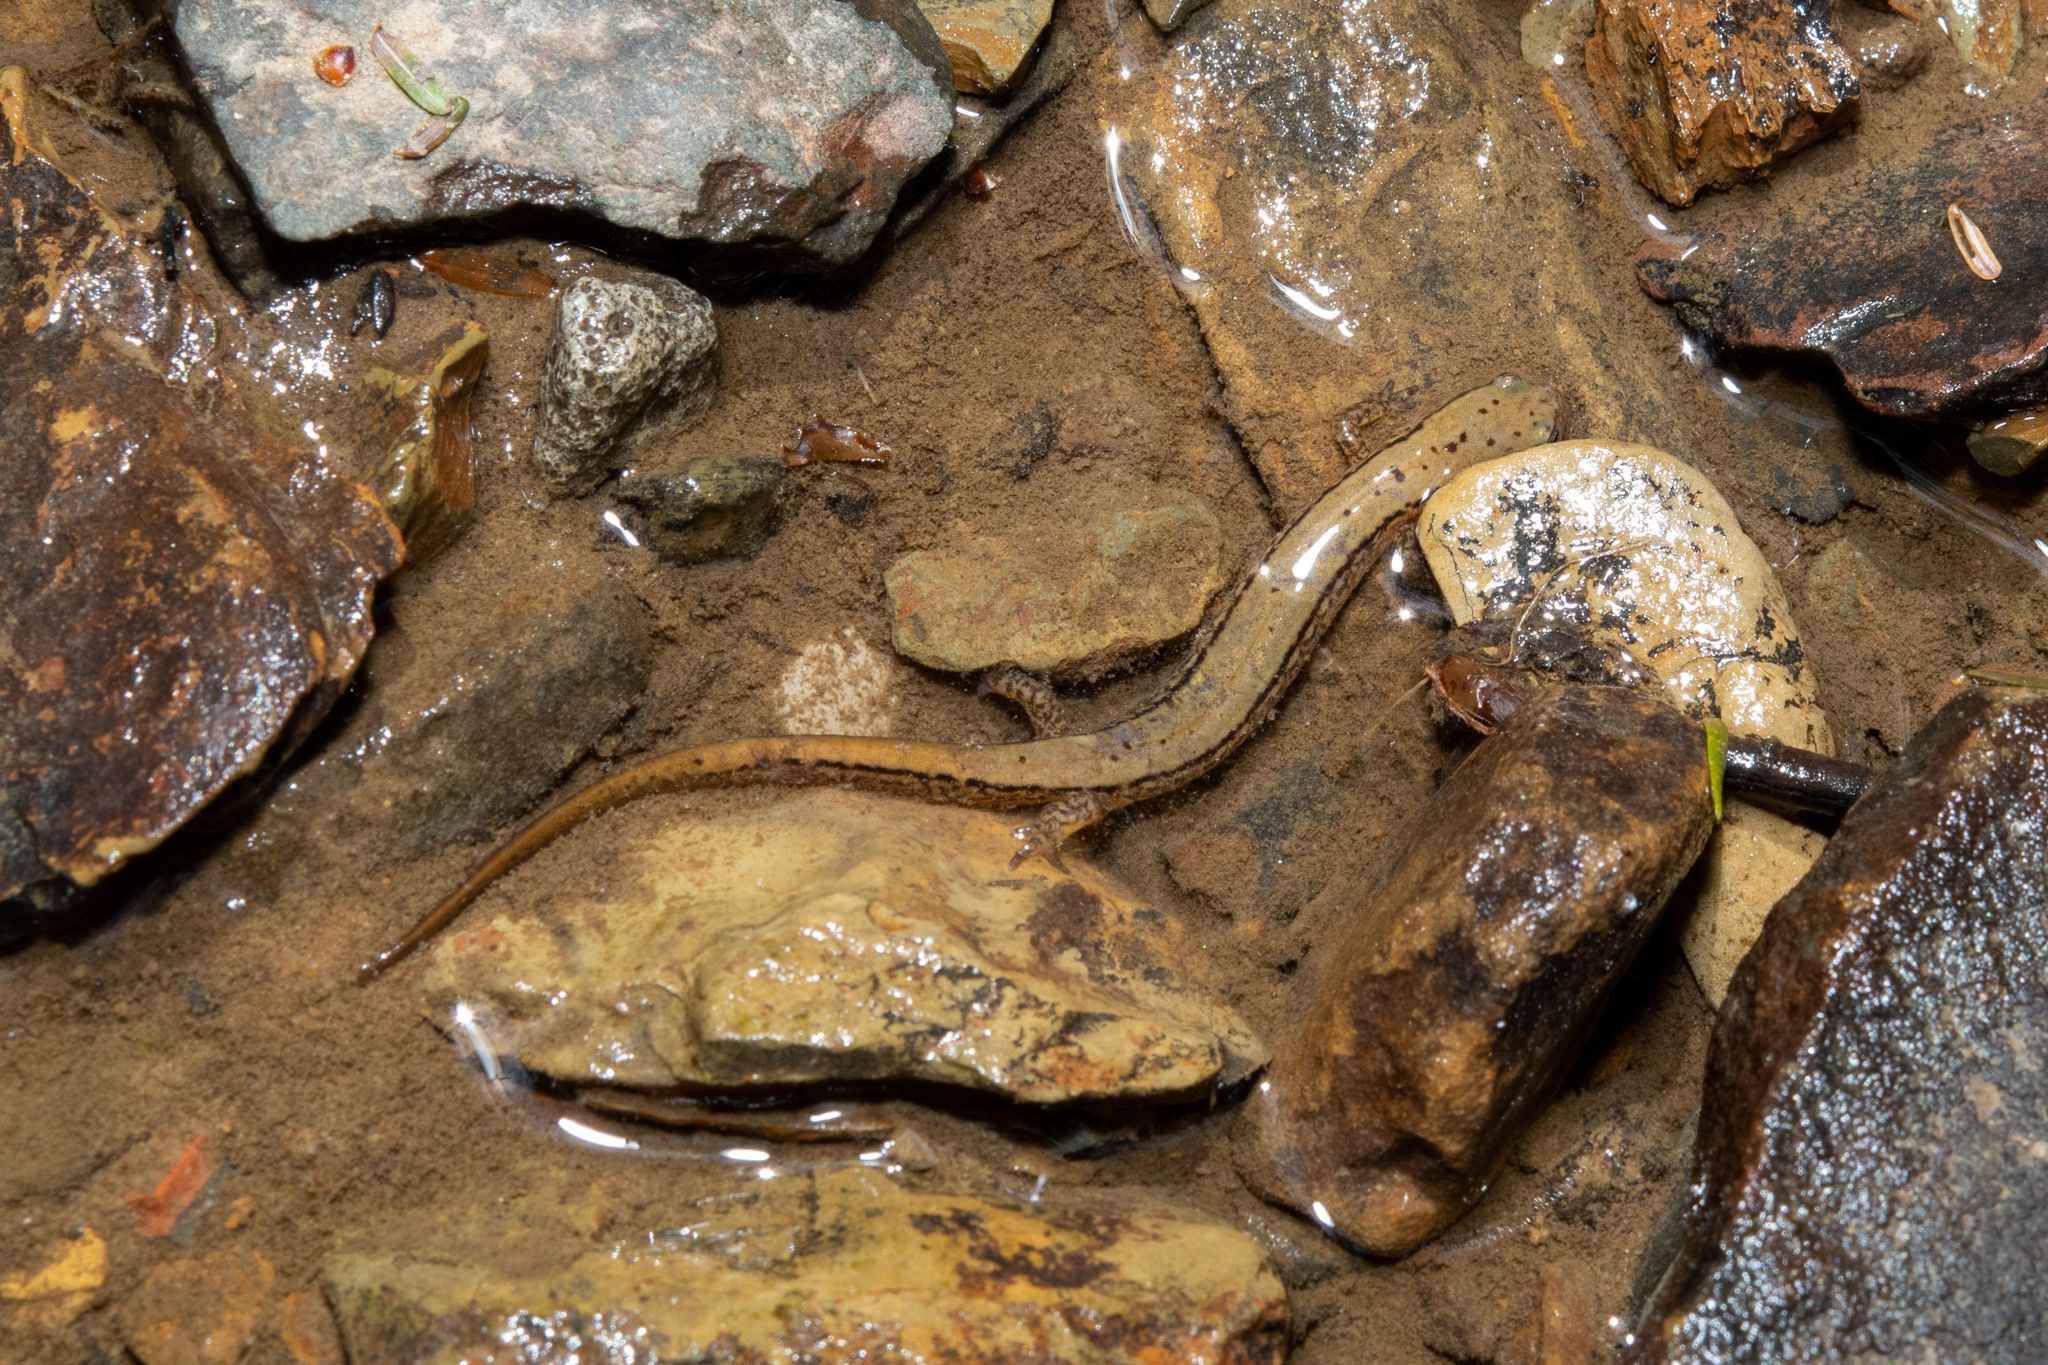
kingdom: Animalia
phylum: Chordata
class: Amphibia
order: Caudata
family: Plethodontidae
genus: Eurycea
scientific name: Eurycea bislineata
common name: Northern two-lined salamander
